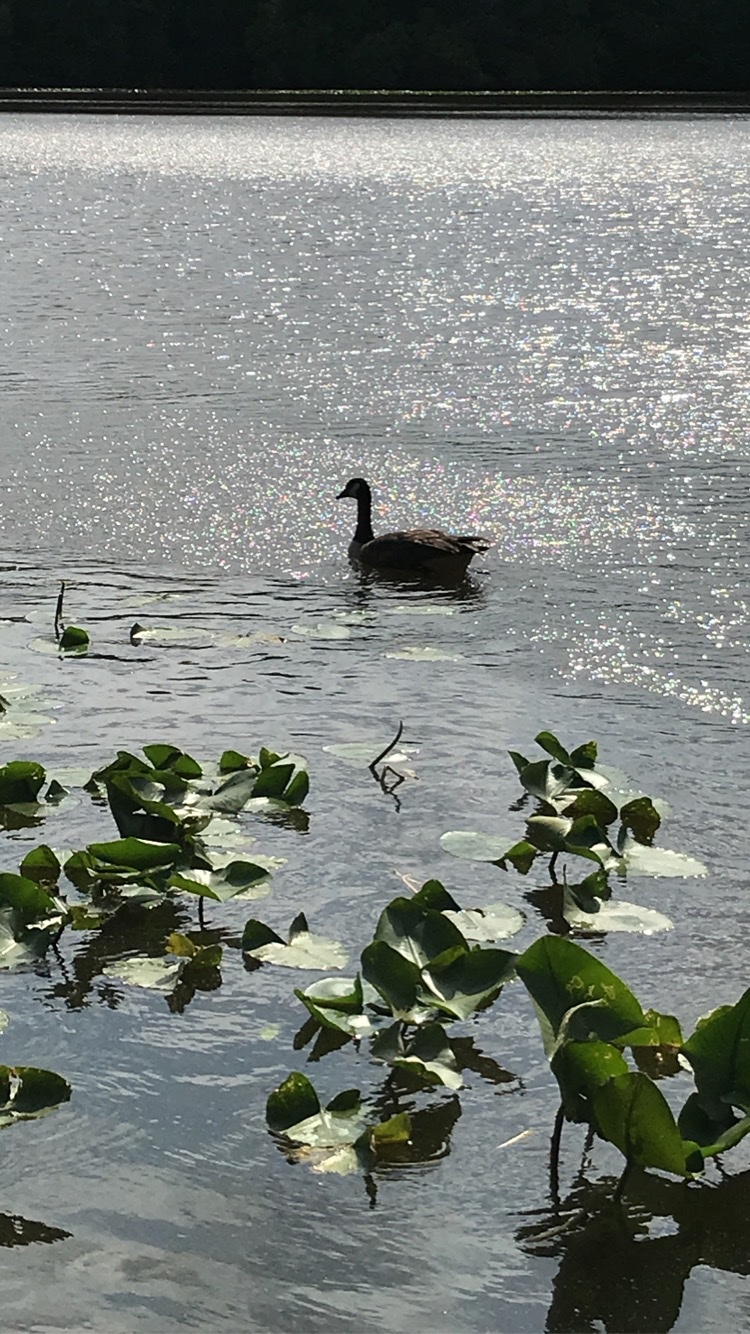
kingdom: Animalia
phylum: Chordata
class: Aves
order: Anseriformes
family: Anatidae
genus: Branta
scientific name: Branta canadensis
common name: Canada goose
